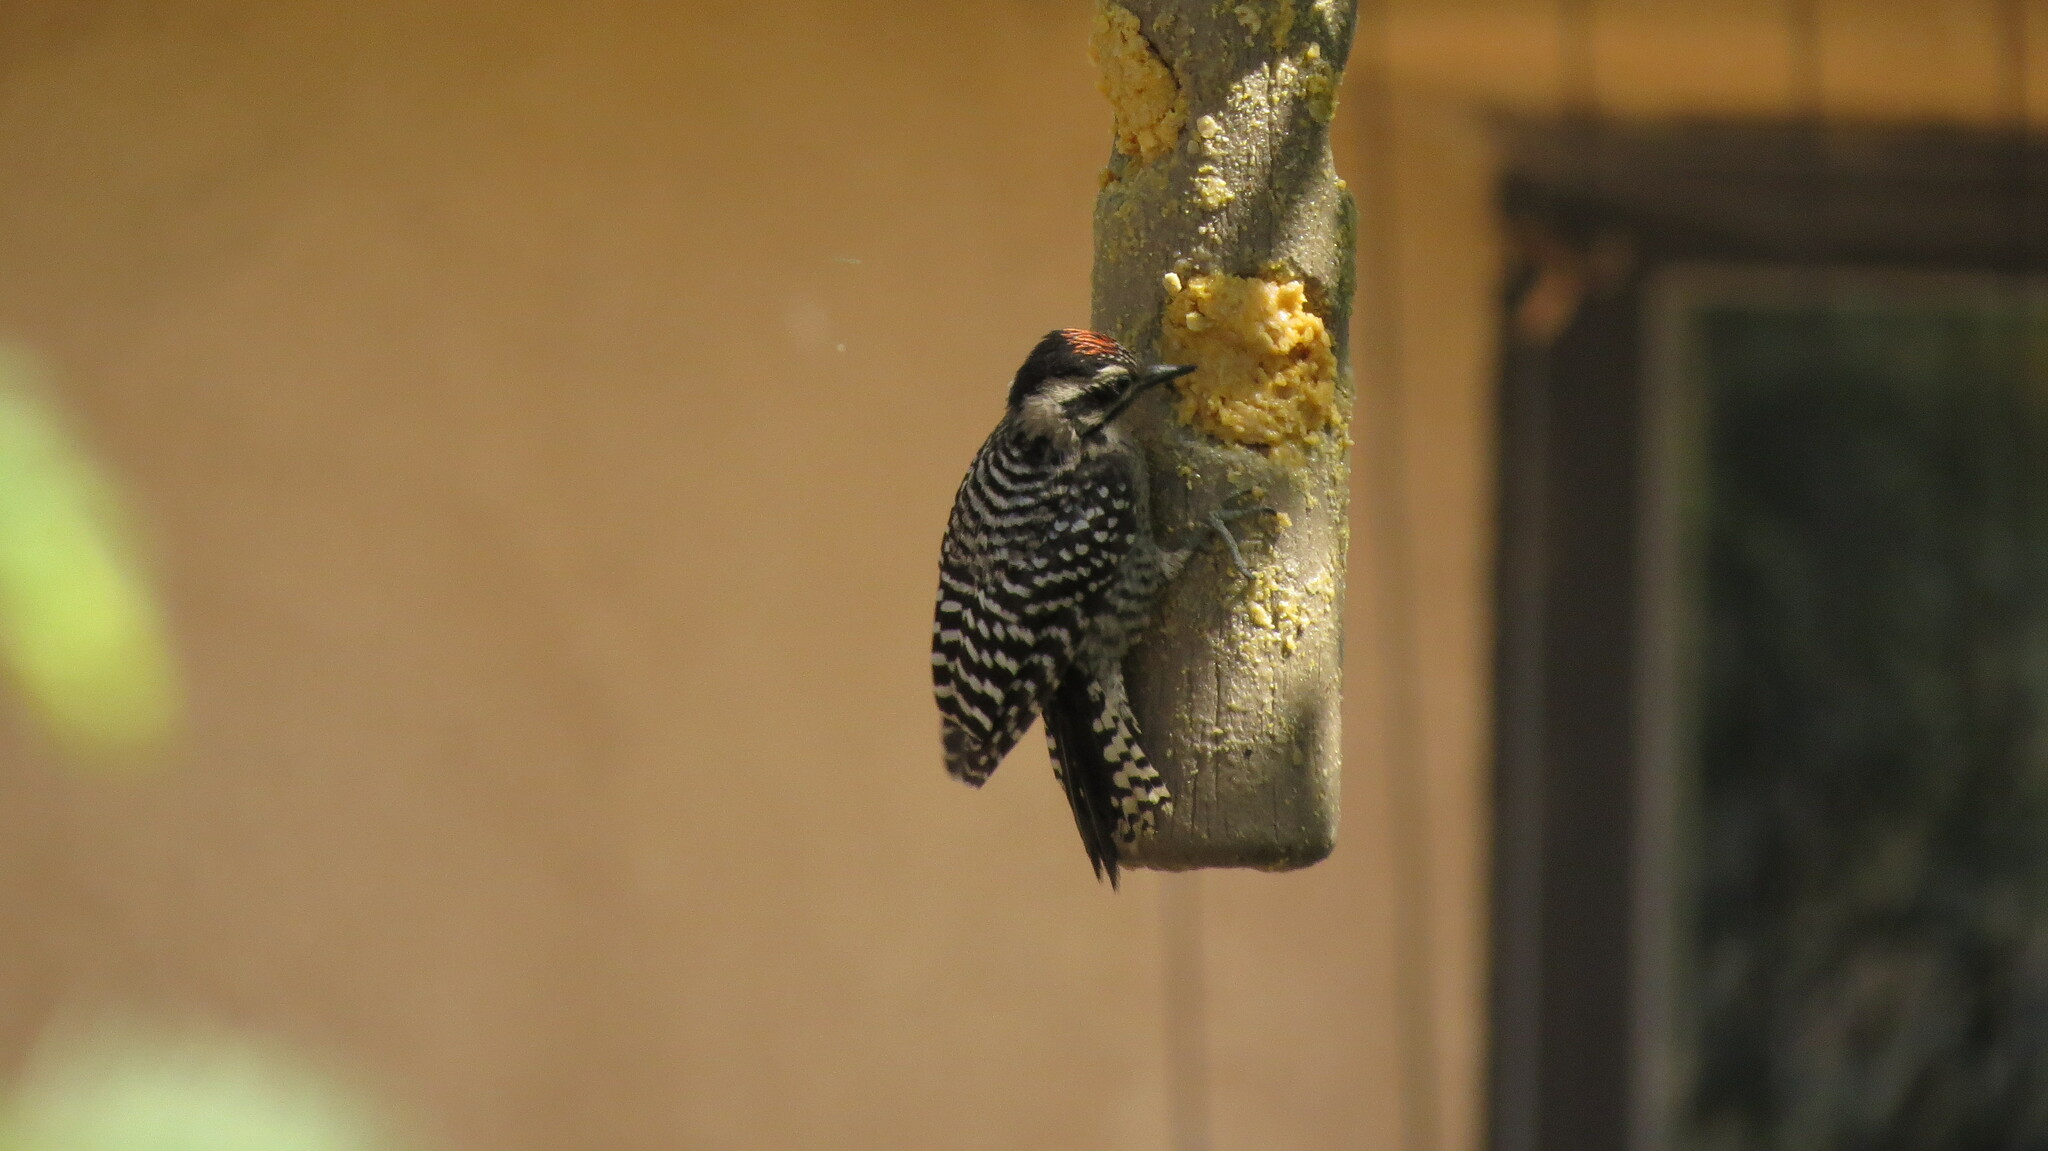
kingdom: Animalia
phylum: Chordata
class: Aves
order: Piciformes
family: Picidae
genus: Dryobates
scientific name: Dryobates scalaris
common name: Ladder-backed woodpecker
